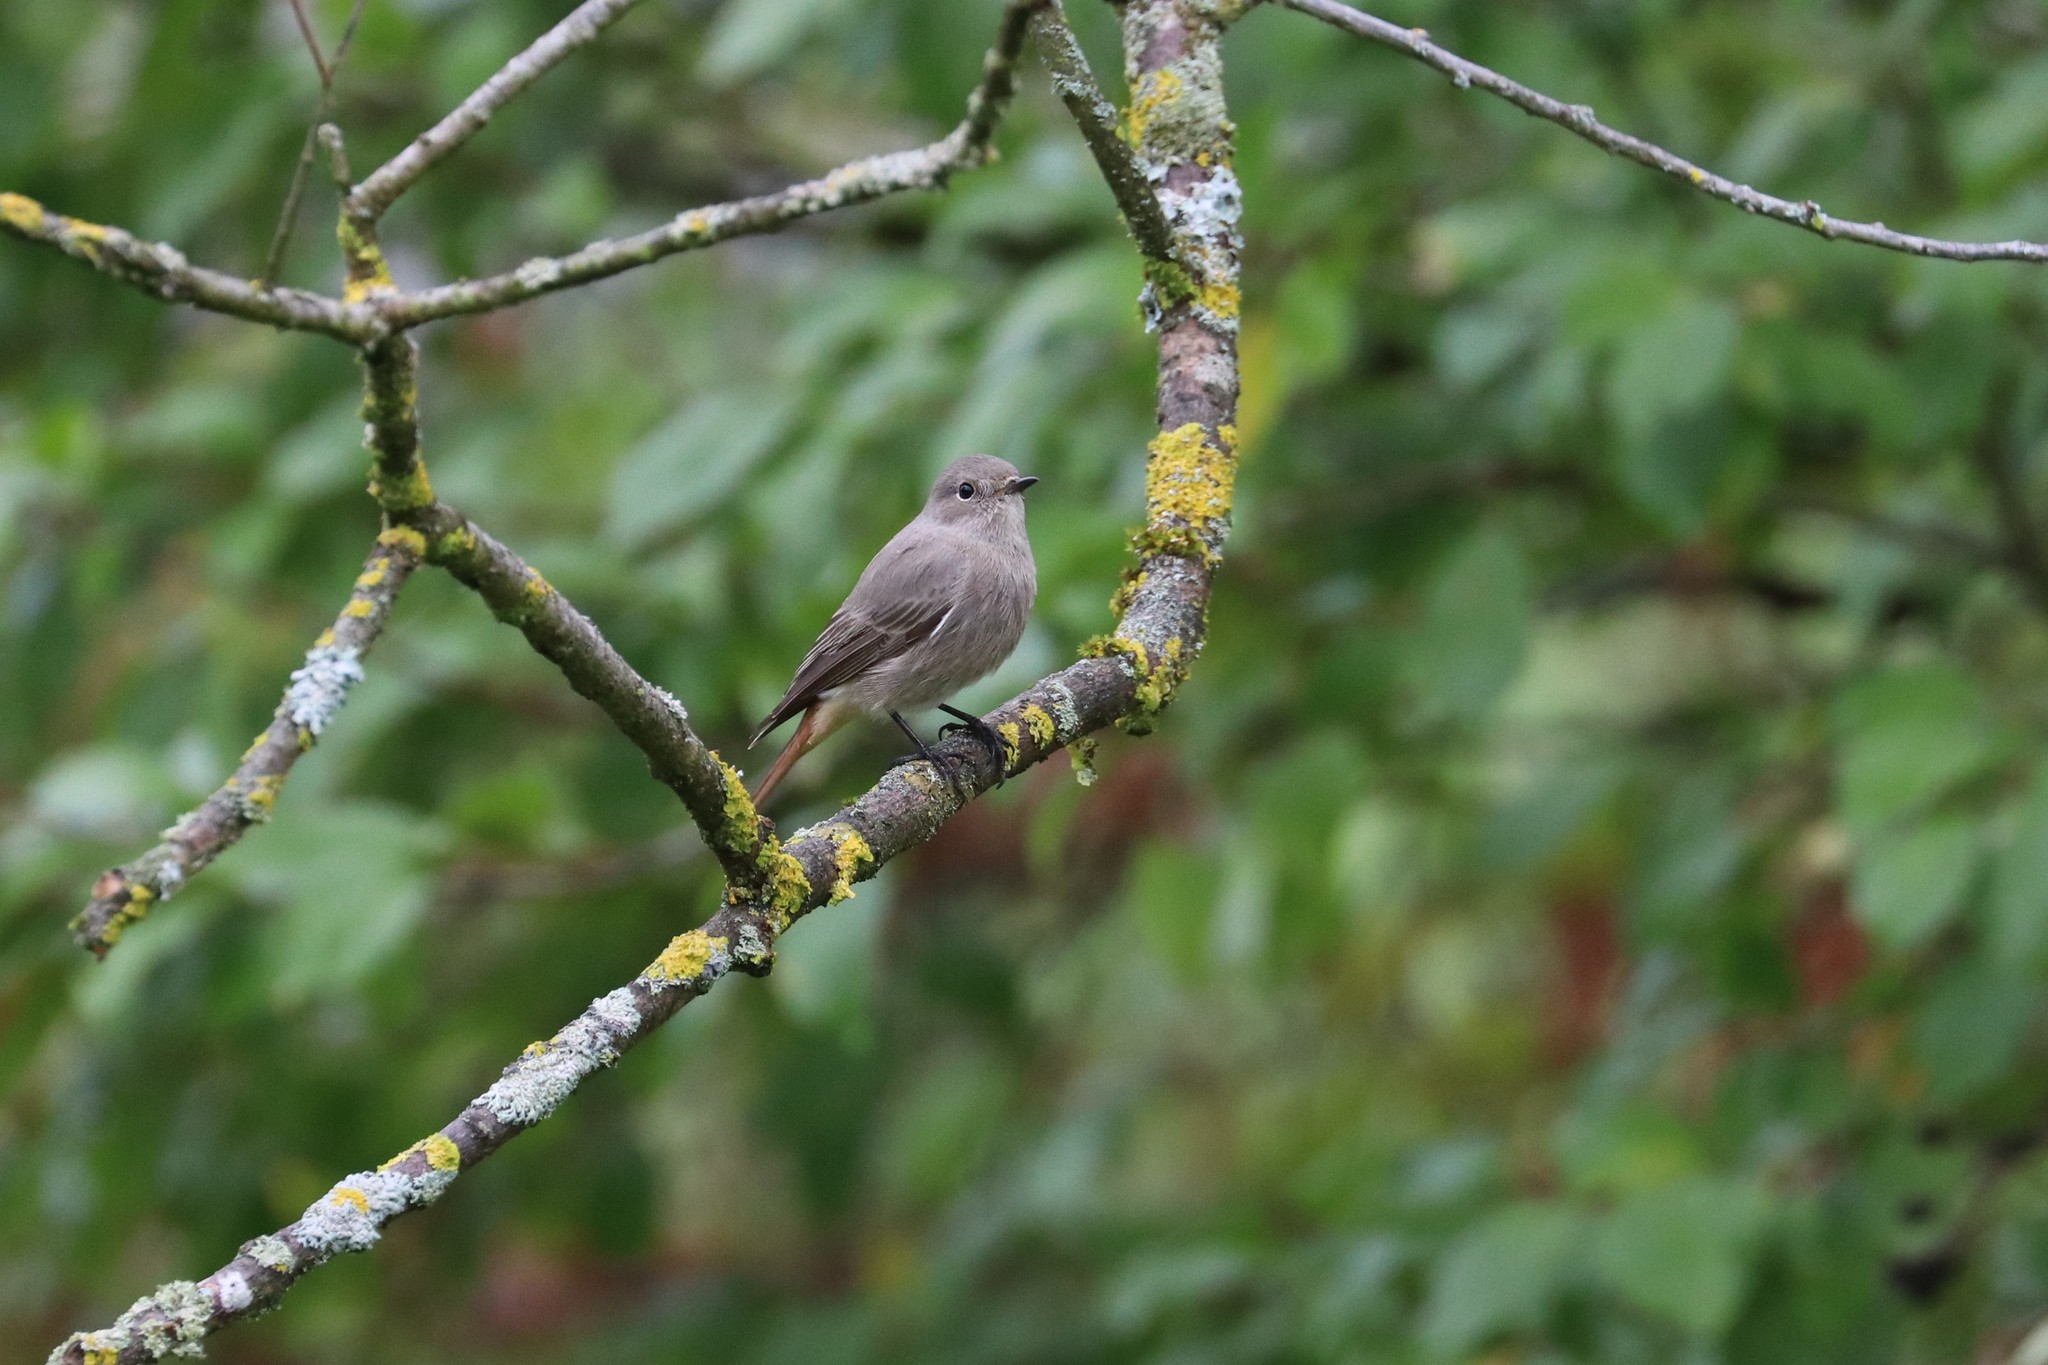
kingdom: Animalia
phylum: Chordata
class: Aves
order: Passeriformes
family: Muscicapidae
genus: Phoenicurus
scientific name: Phoenicurus ochruros
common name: Black redstart
